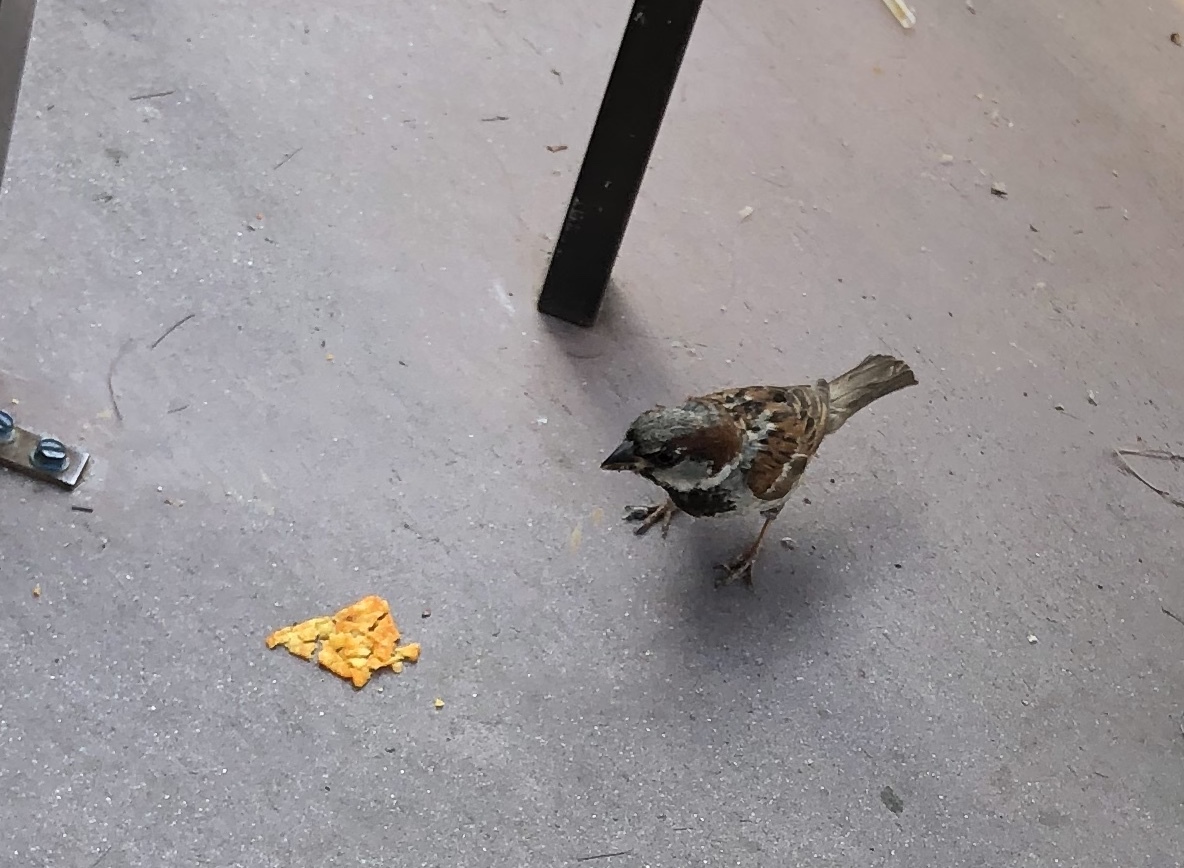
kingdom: Animalia
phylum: Chordata
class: Aves
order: Passeriformes
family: Passeridae
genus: Passer
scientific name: Passer domesticus
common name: House sparrow
